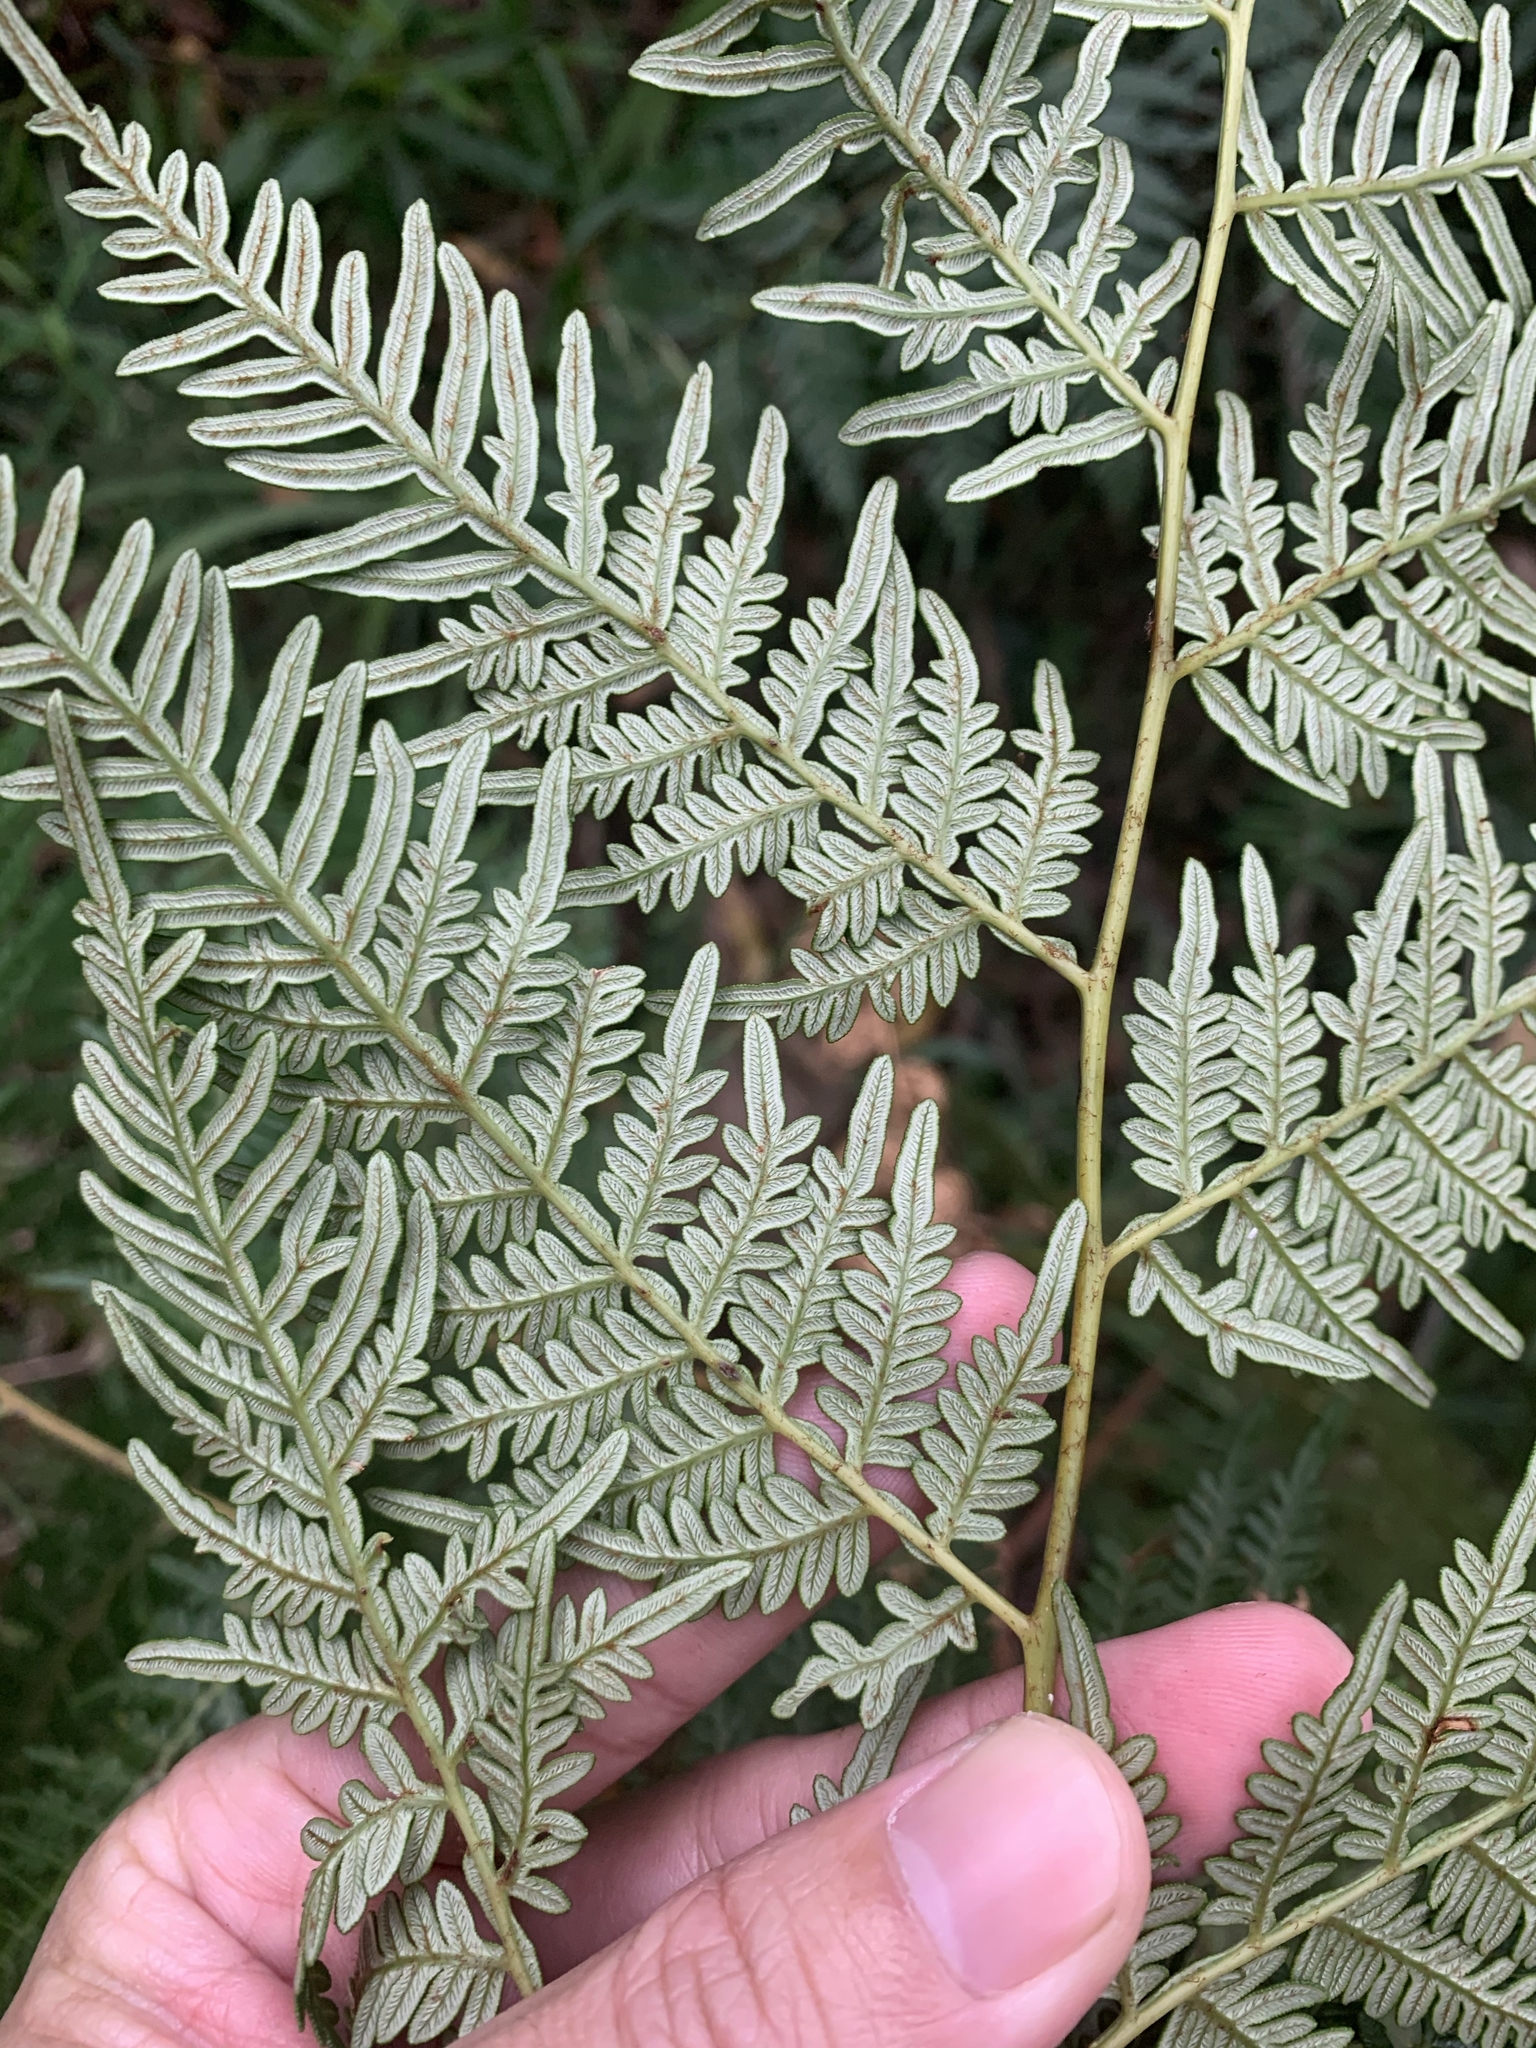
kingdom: Plantae
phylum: Tracheophyta
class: Polypodiopsida
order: Polypodiales
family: Dennstaedtiaceae
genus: Pteridium
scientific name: Pteridium esculentum
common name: Bracken fern
